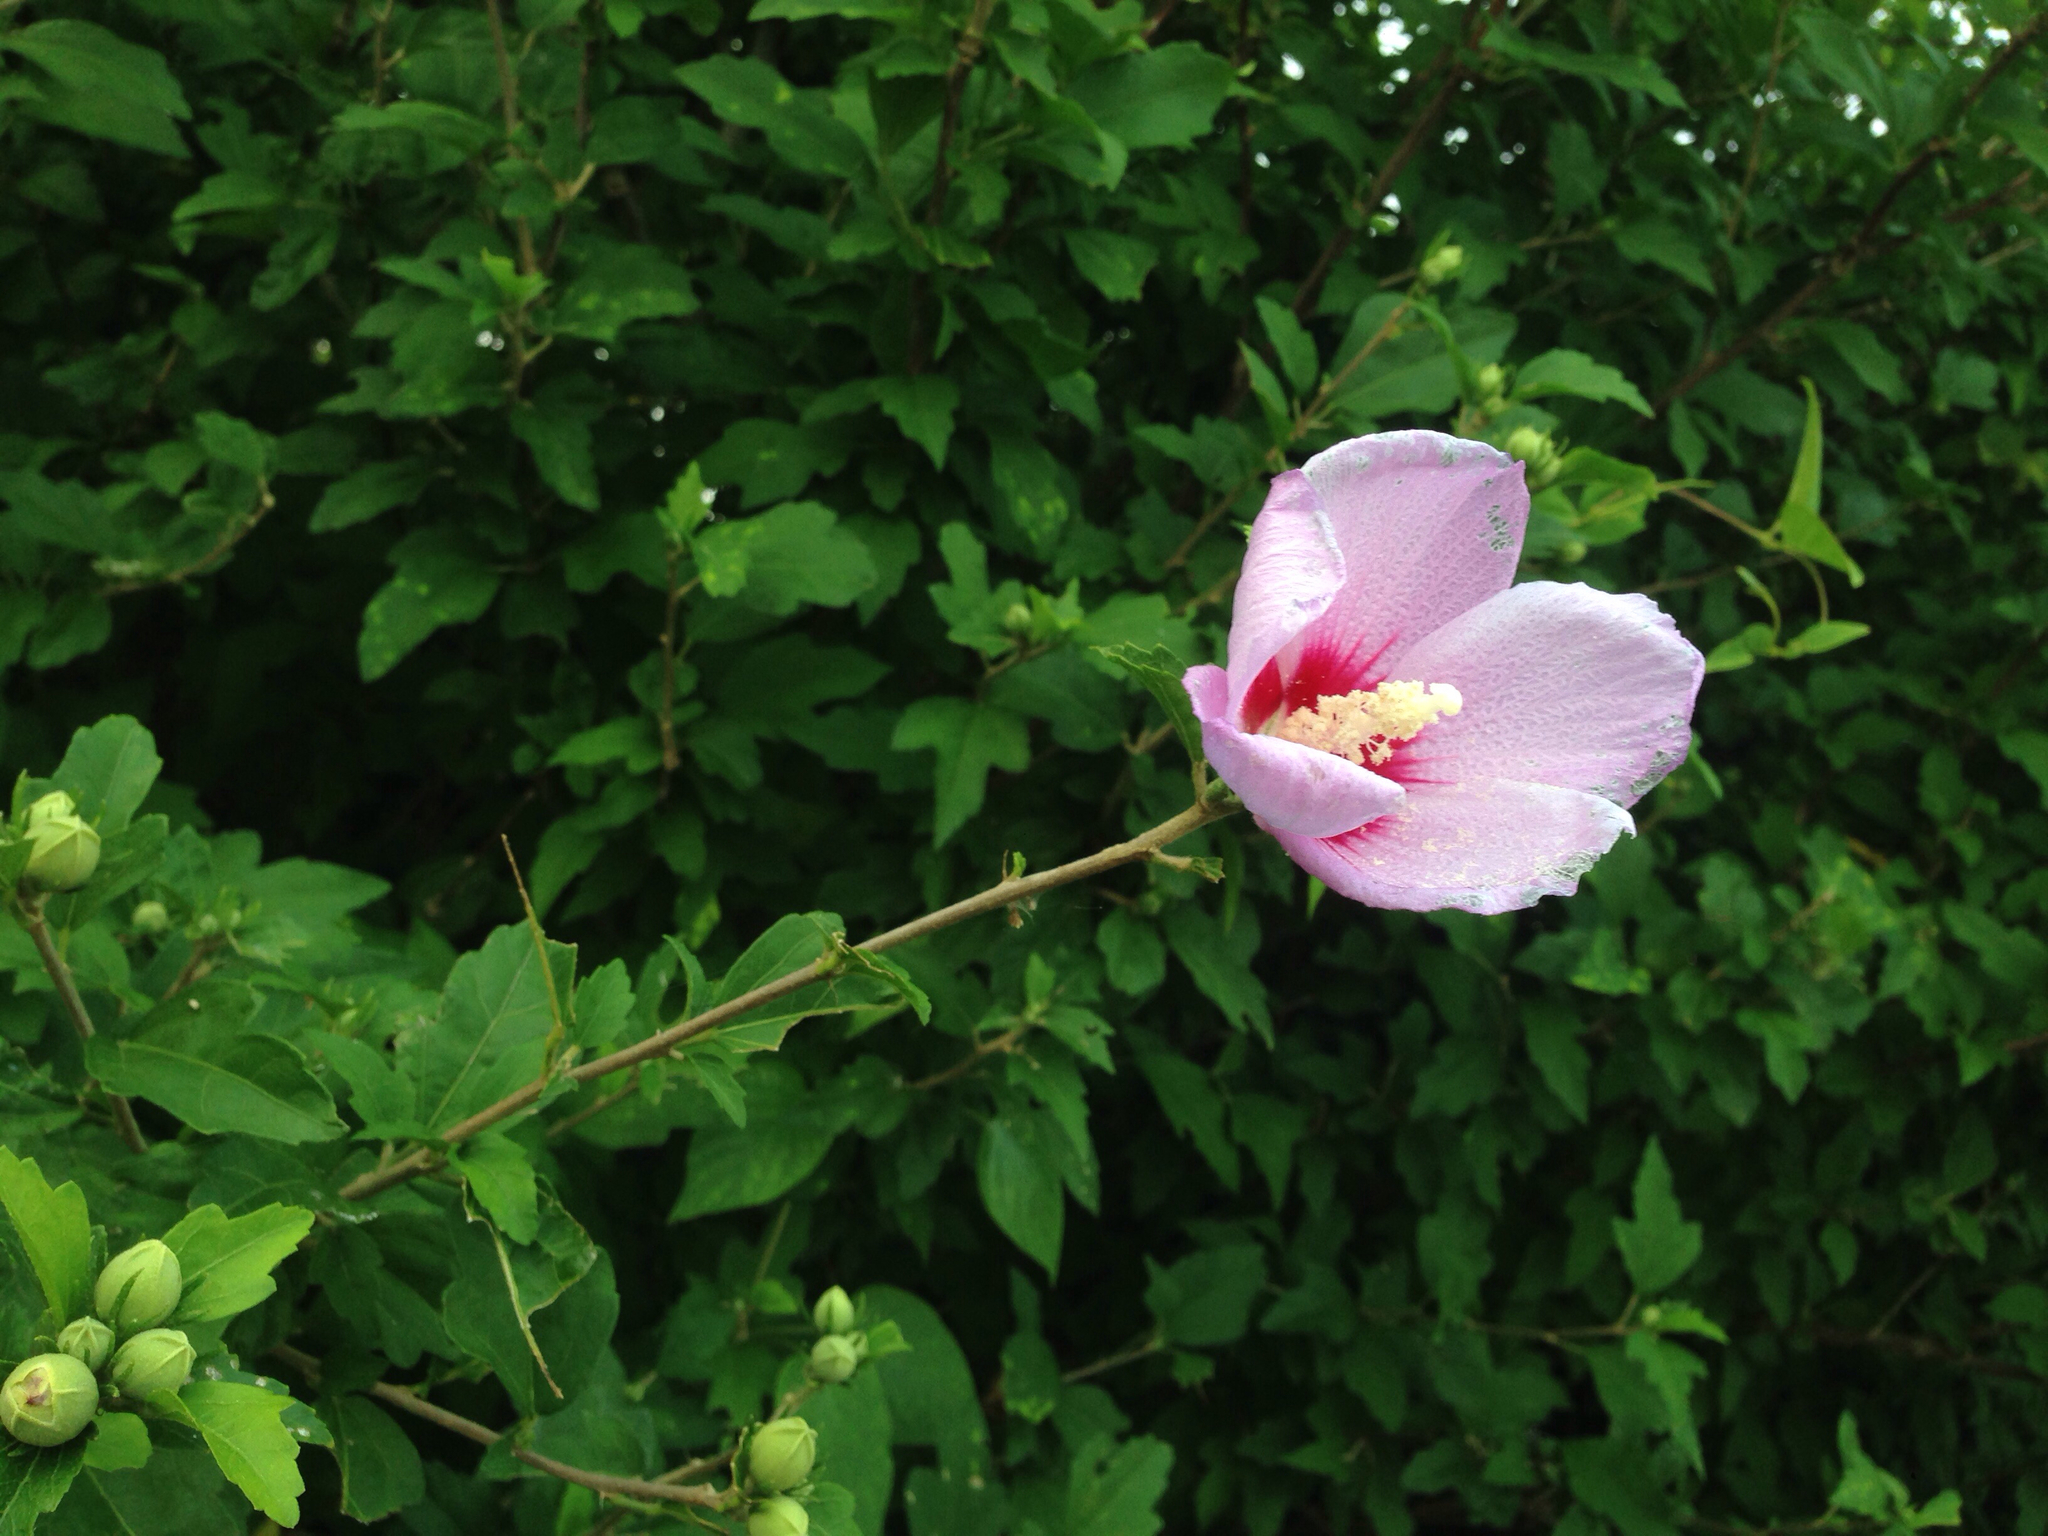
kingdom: Plantae
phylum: Tracheophyta
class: Magnoliopsida
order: Malvales
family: Malvaceae
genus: Hibiscus
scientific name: Hibiscus syriacus
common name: Syrian ketmia
